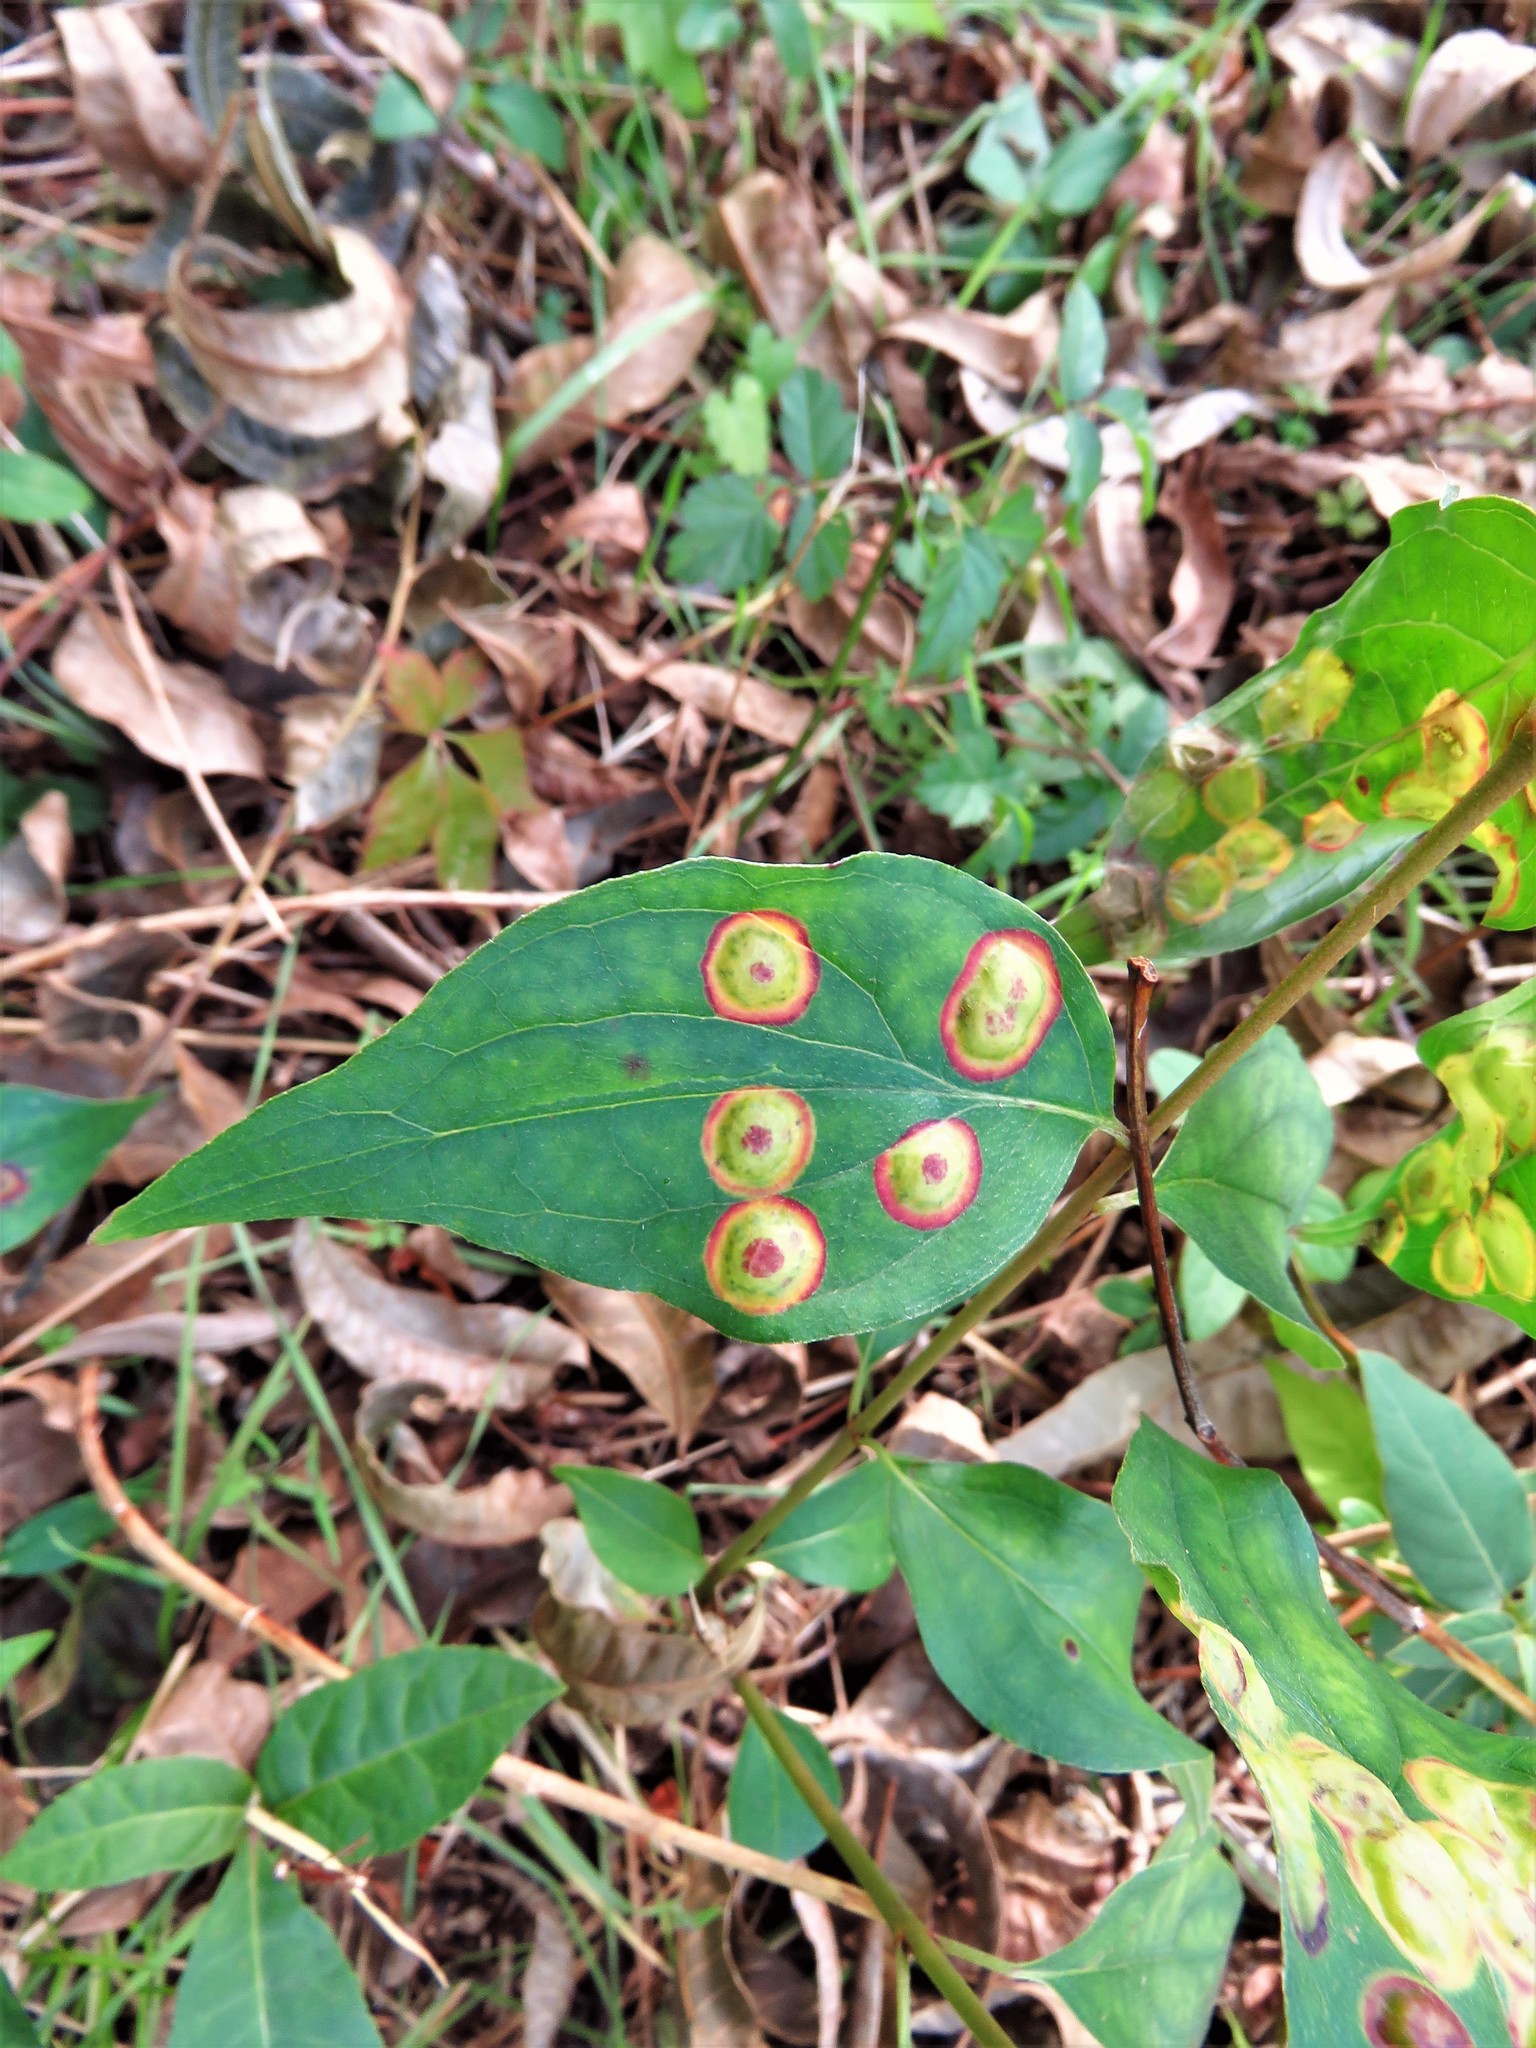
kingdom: Animalia
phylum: Arthropoda
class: Insecta
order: Diptera
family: Cecidomyiidae
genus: Parallelodiplosis
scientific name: Parallelodiplosis subtruncata
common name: Dogwood eyespot gall midge
